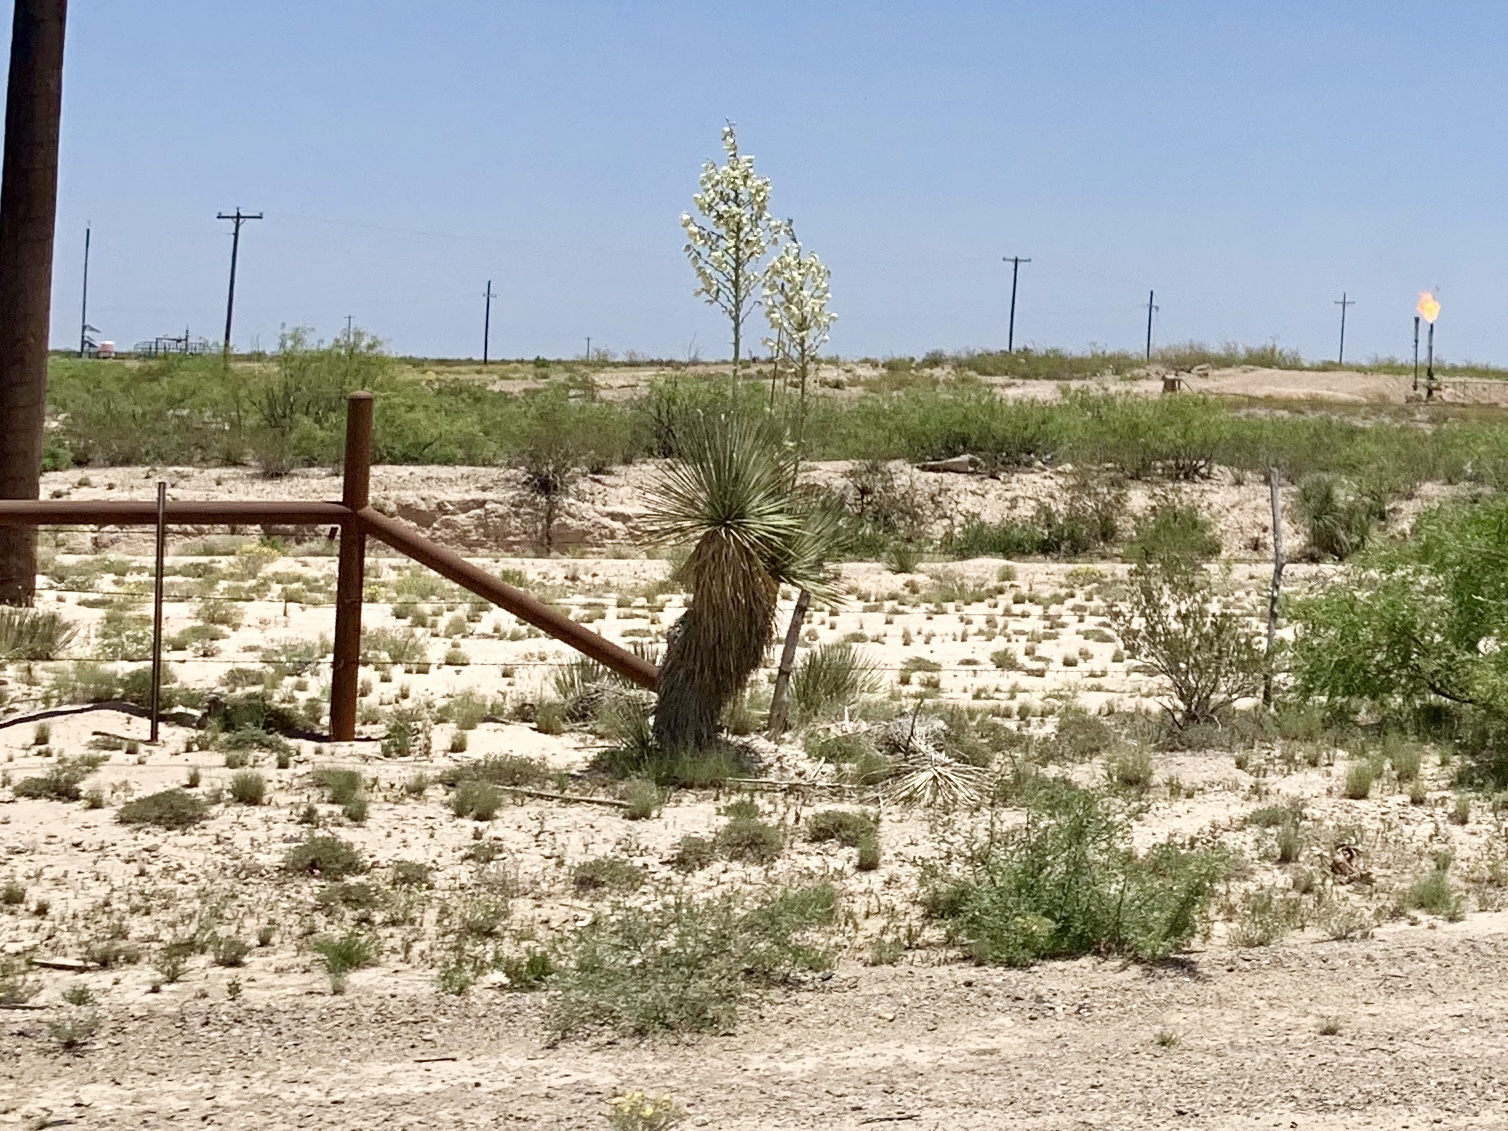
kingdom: Plantae
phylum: Tracheophyta
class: Liliopsida
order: Asparagales
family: Asparagaceae
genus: Yucca
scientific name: Yucca elata
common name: Palmella
